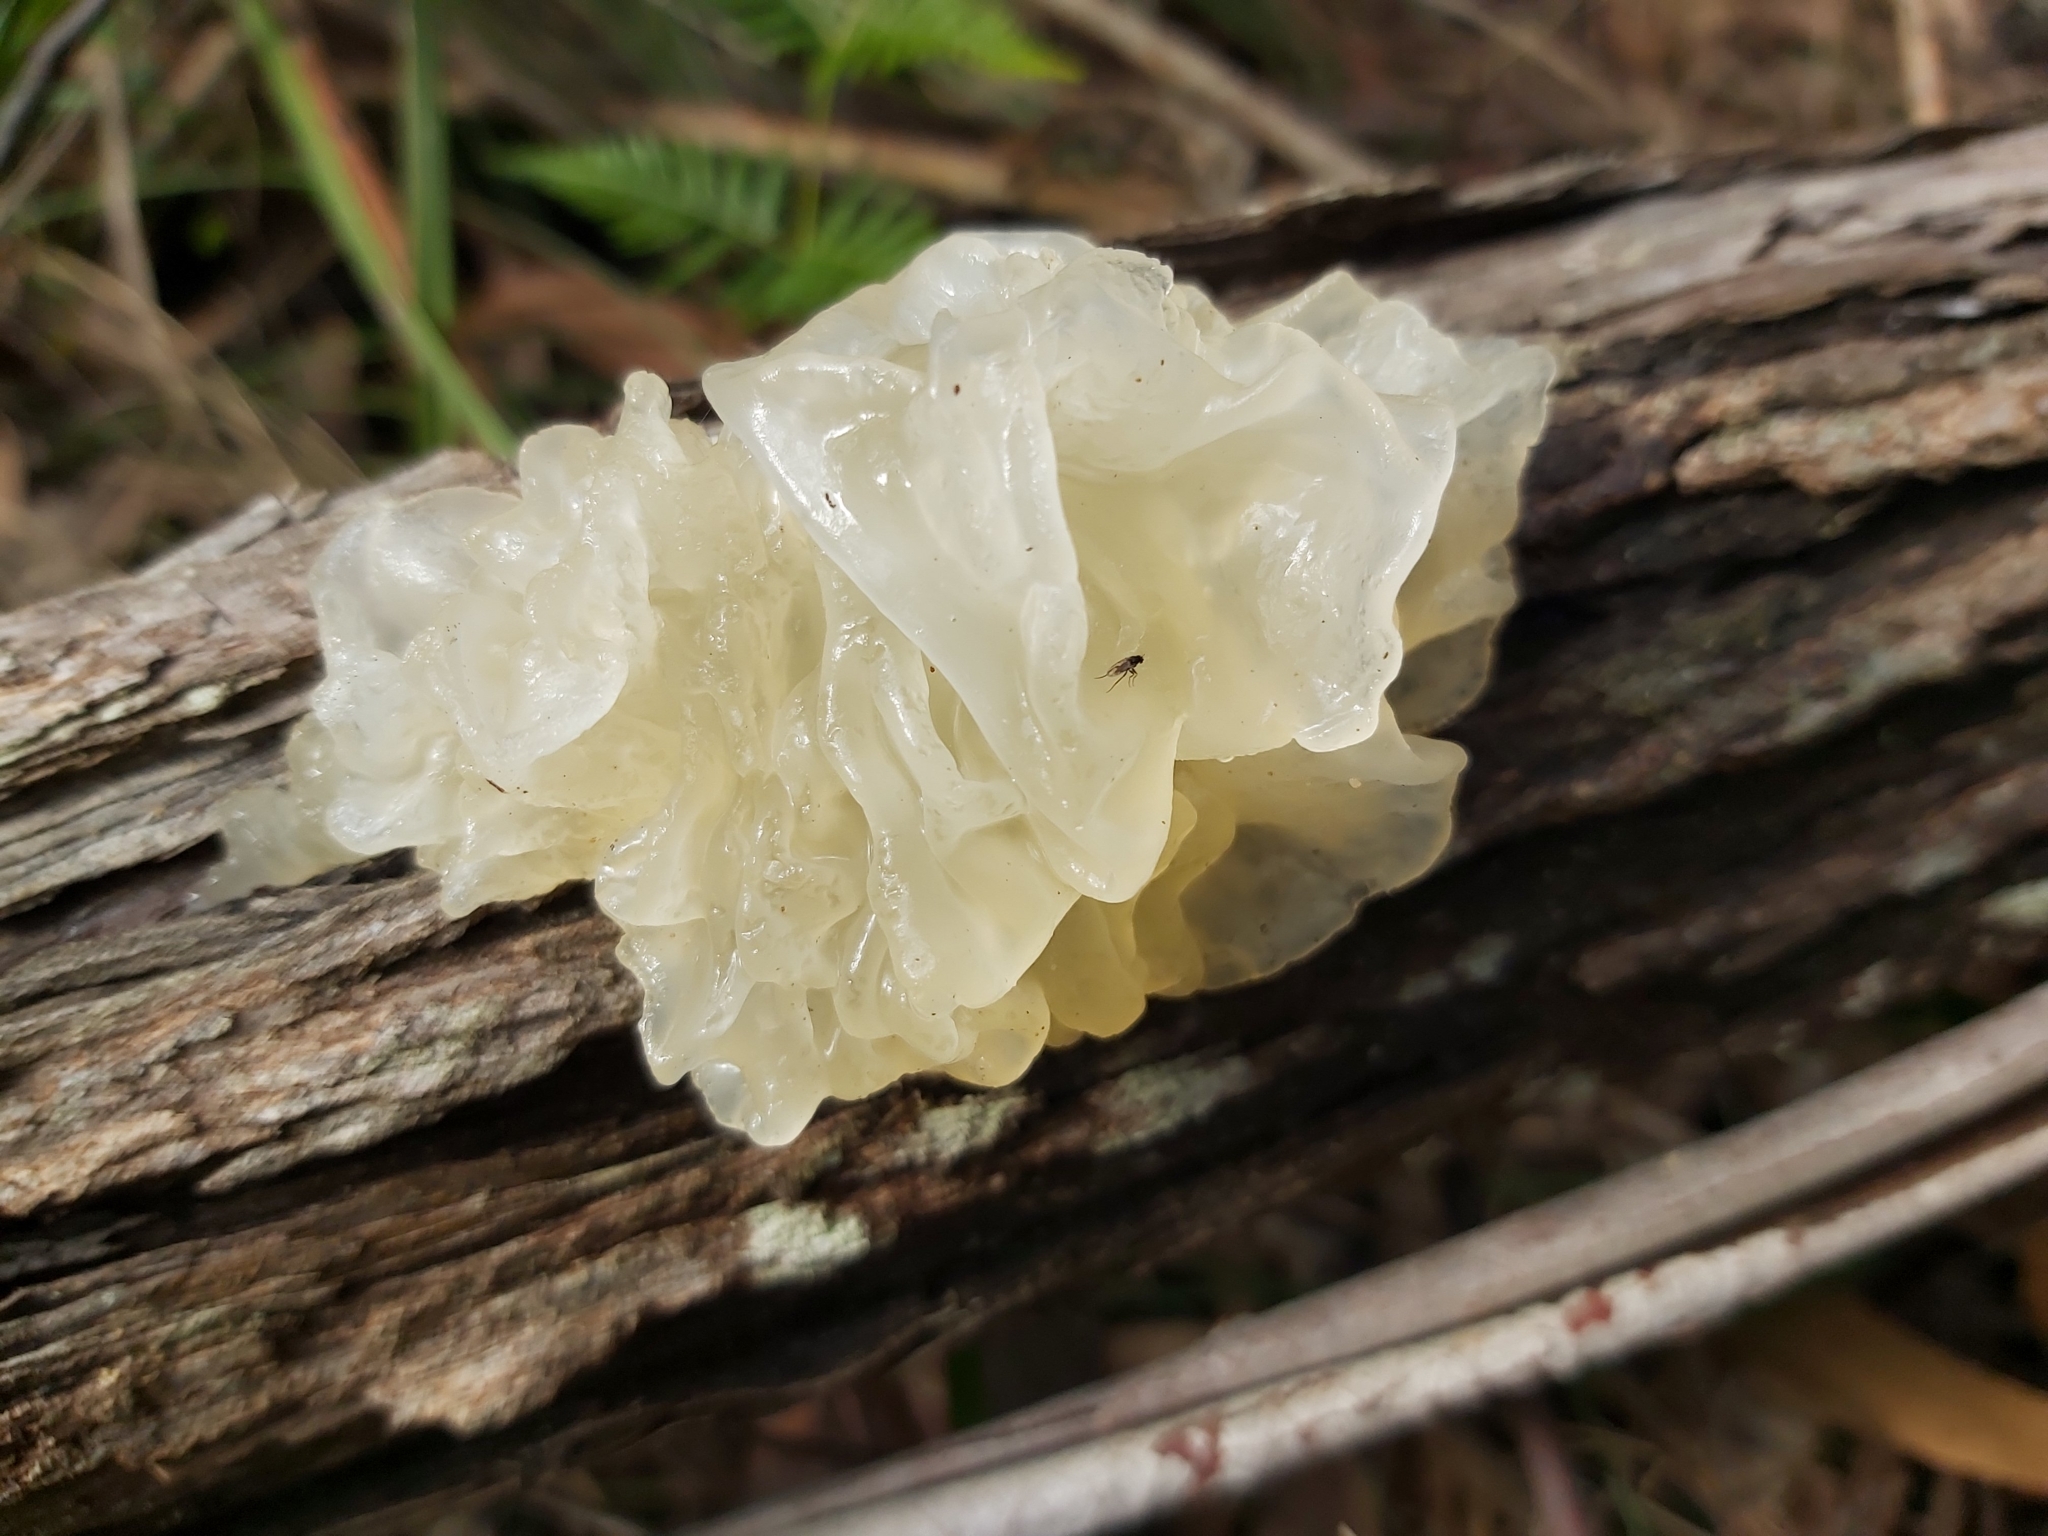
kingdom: Fungi
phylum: Basidiomycota
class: Tremellomycetes
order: Tremellales
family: Tremellaceae
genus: Tremella
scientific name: Tremella fuciformis
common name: Snow fungus
